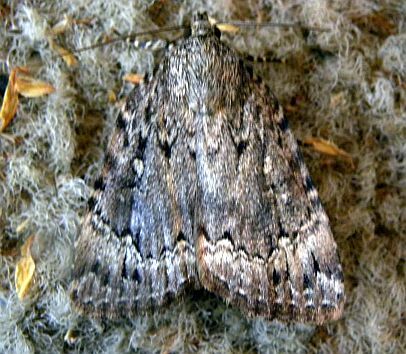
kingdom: Animalia
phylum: Arthropoda
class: Insecta
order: Lepidoptera
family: Noctuidae
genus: Amphipyra
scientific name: Amphipyra pyramidoides
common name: American copper underwing
